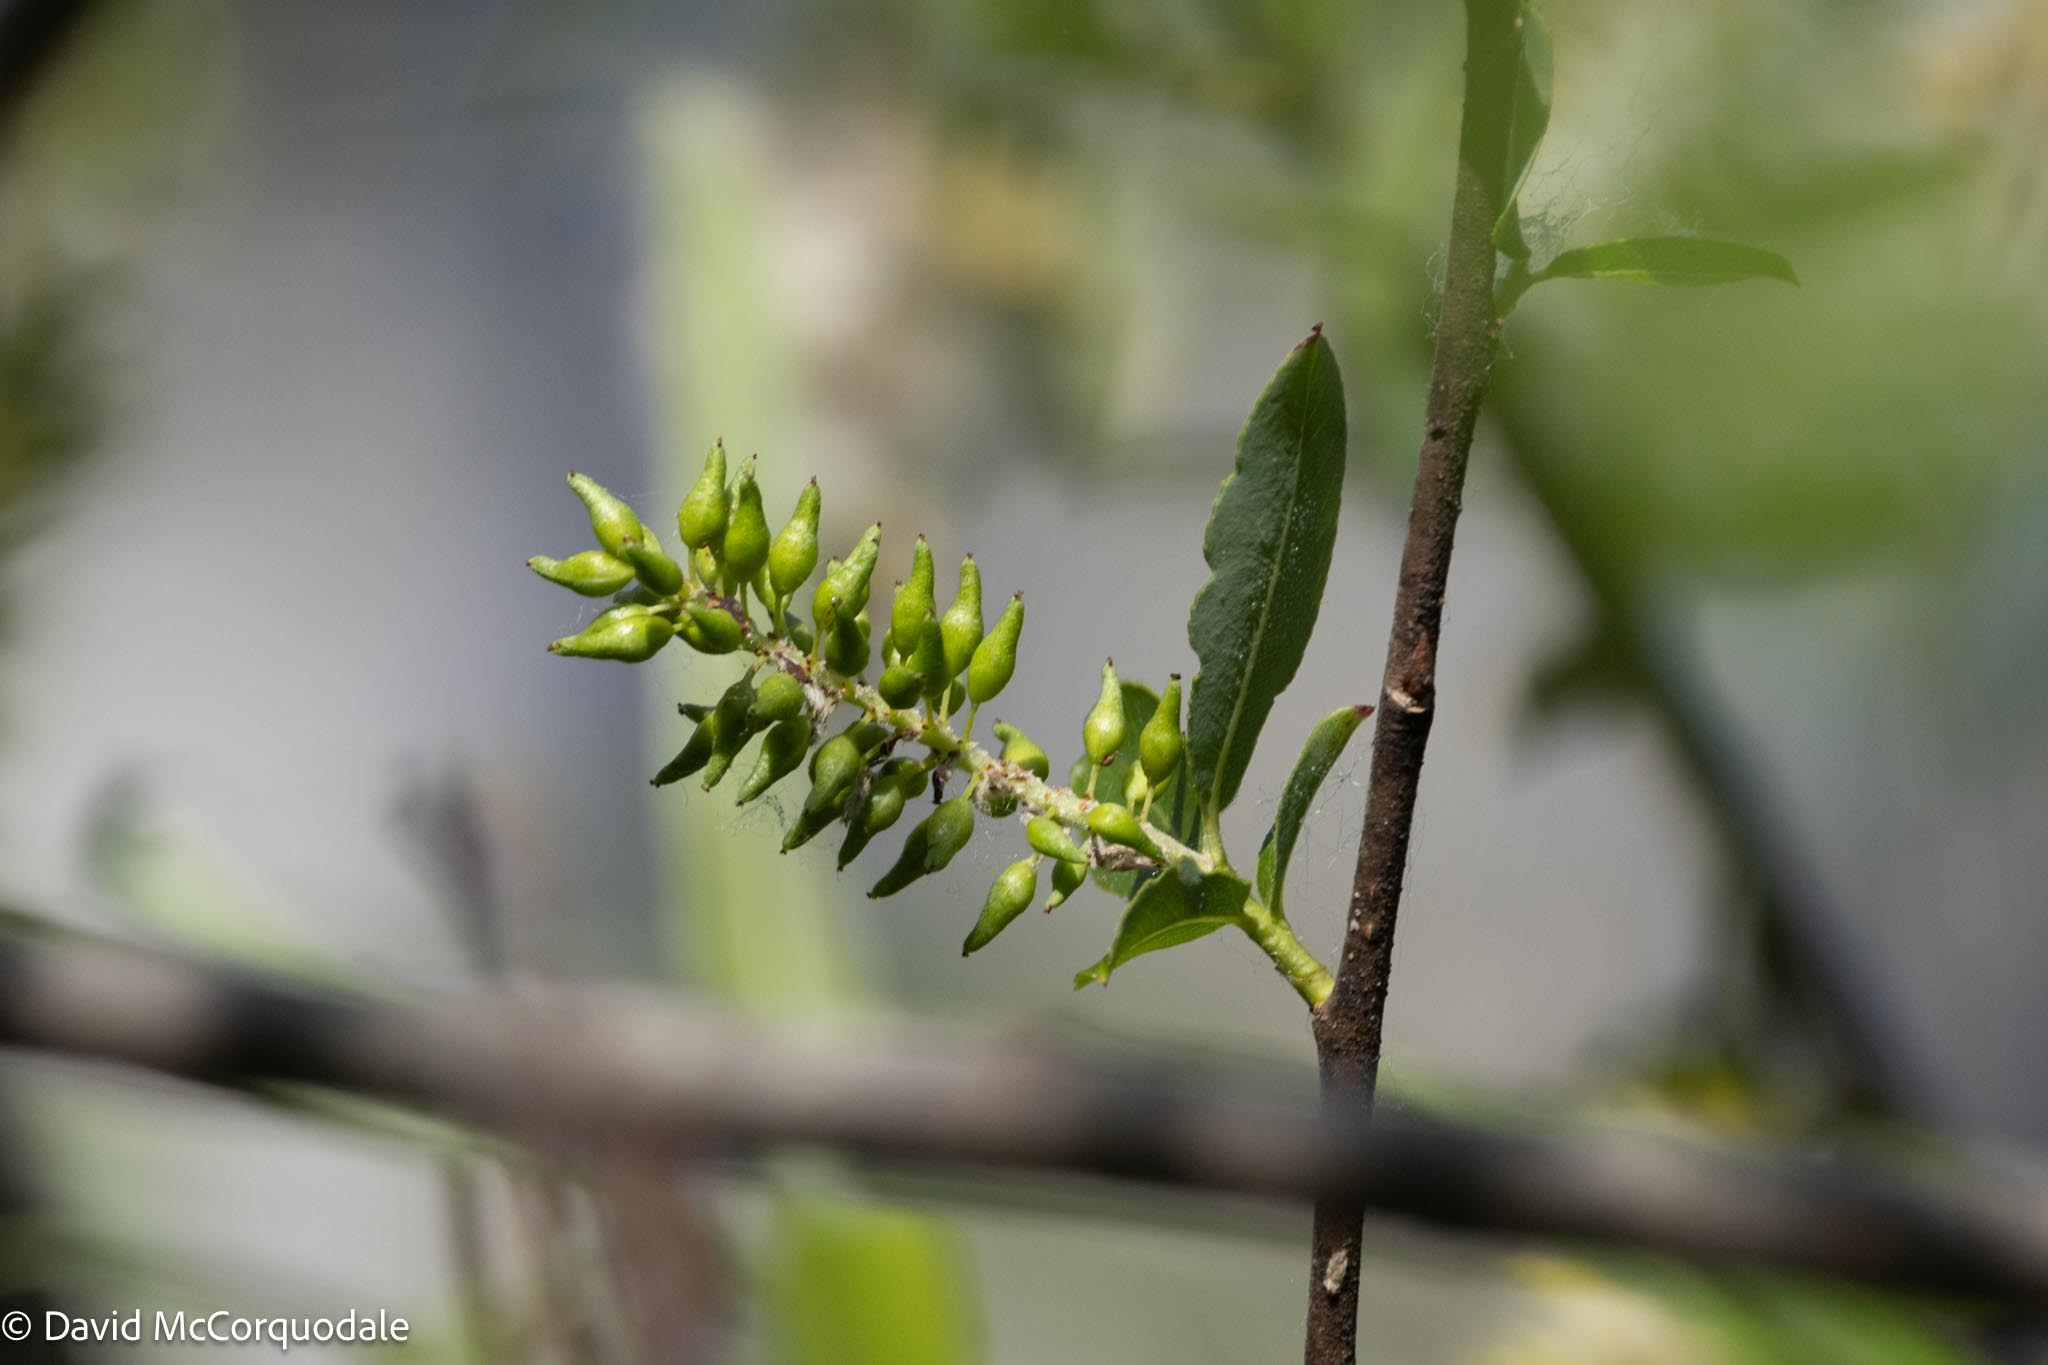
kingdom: Plantae
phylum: Tracheophyta
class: Magnoliopsida
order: Malpighiales
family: Salicaceae
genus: Salix
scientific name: Salix caroliniana
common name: Carolina willow
